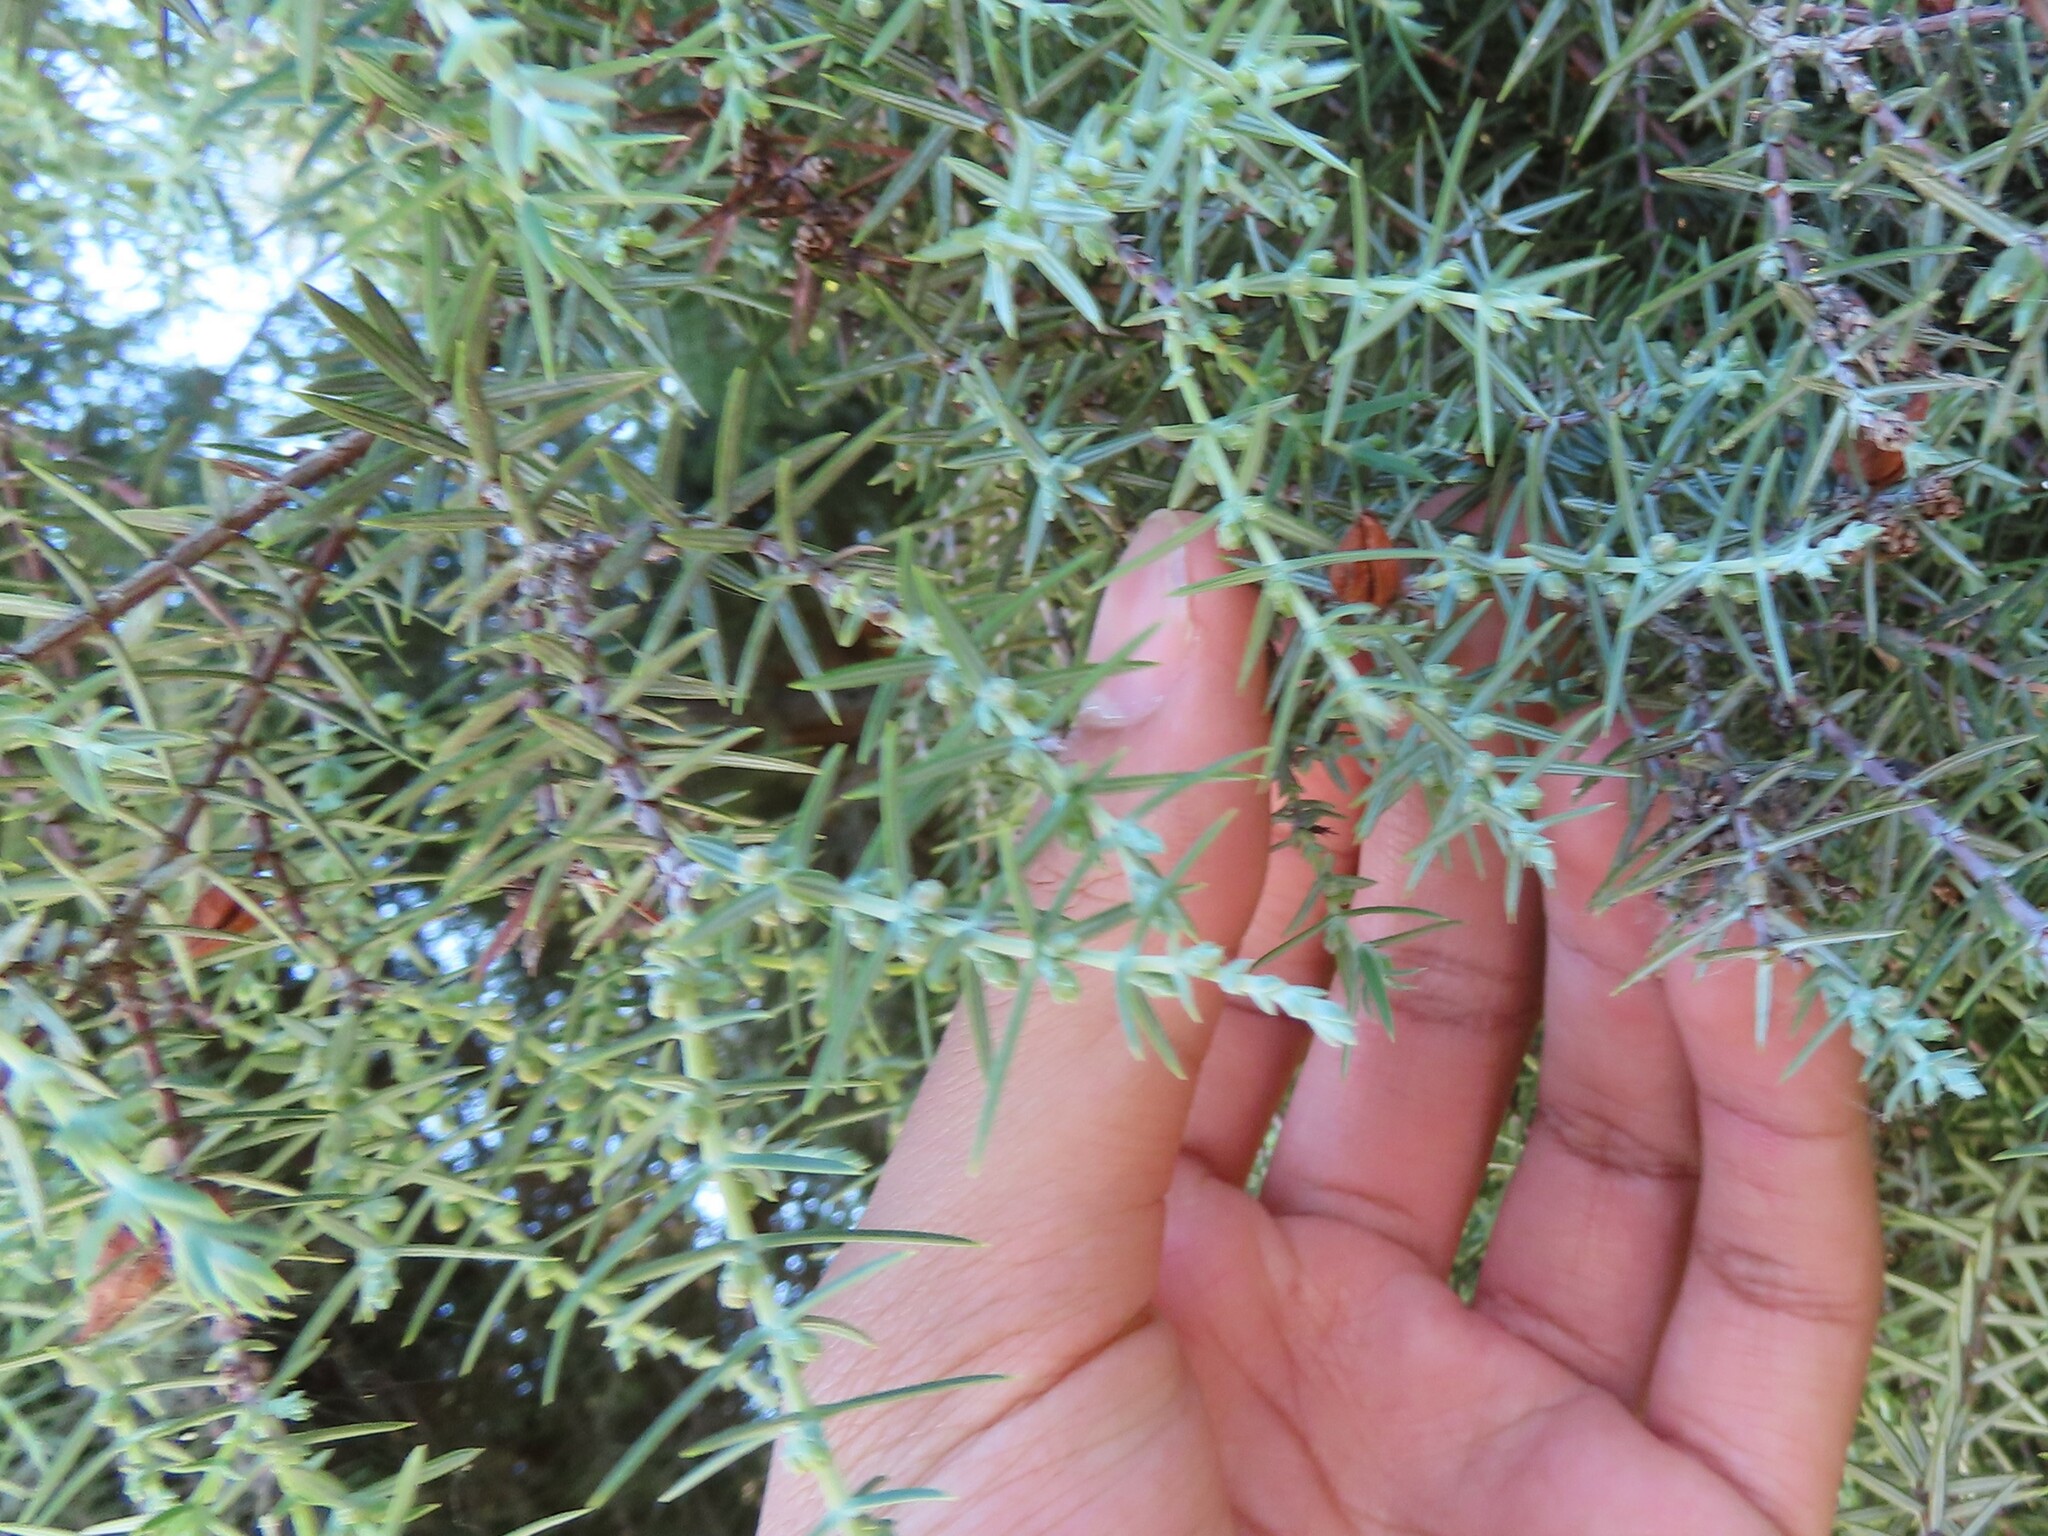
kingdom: Animalia
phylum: Arthropoda
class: Insecta
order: Diptera
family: Cecidomyiidae
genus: Arceuthomyia
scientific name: Arceuthomyia valerii
